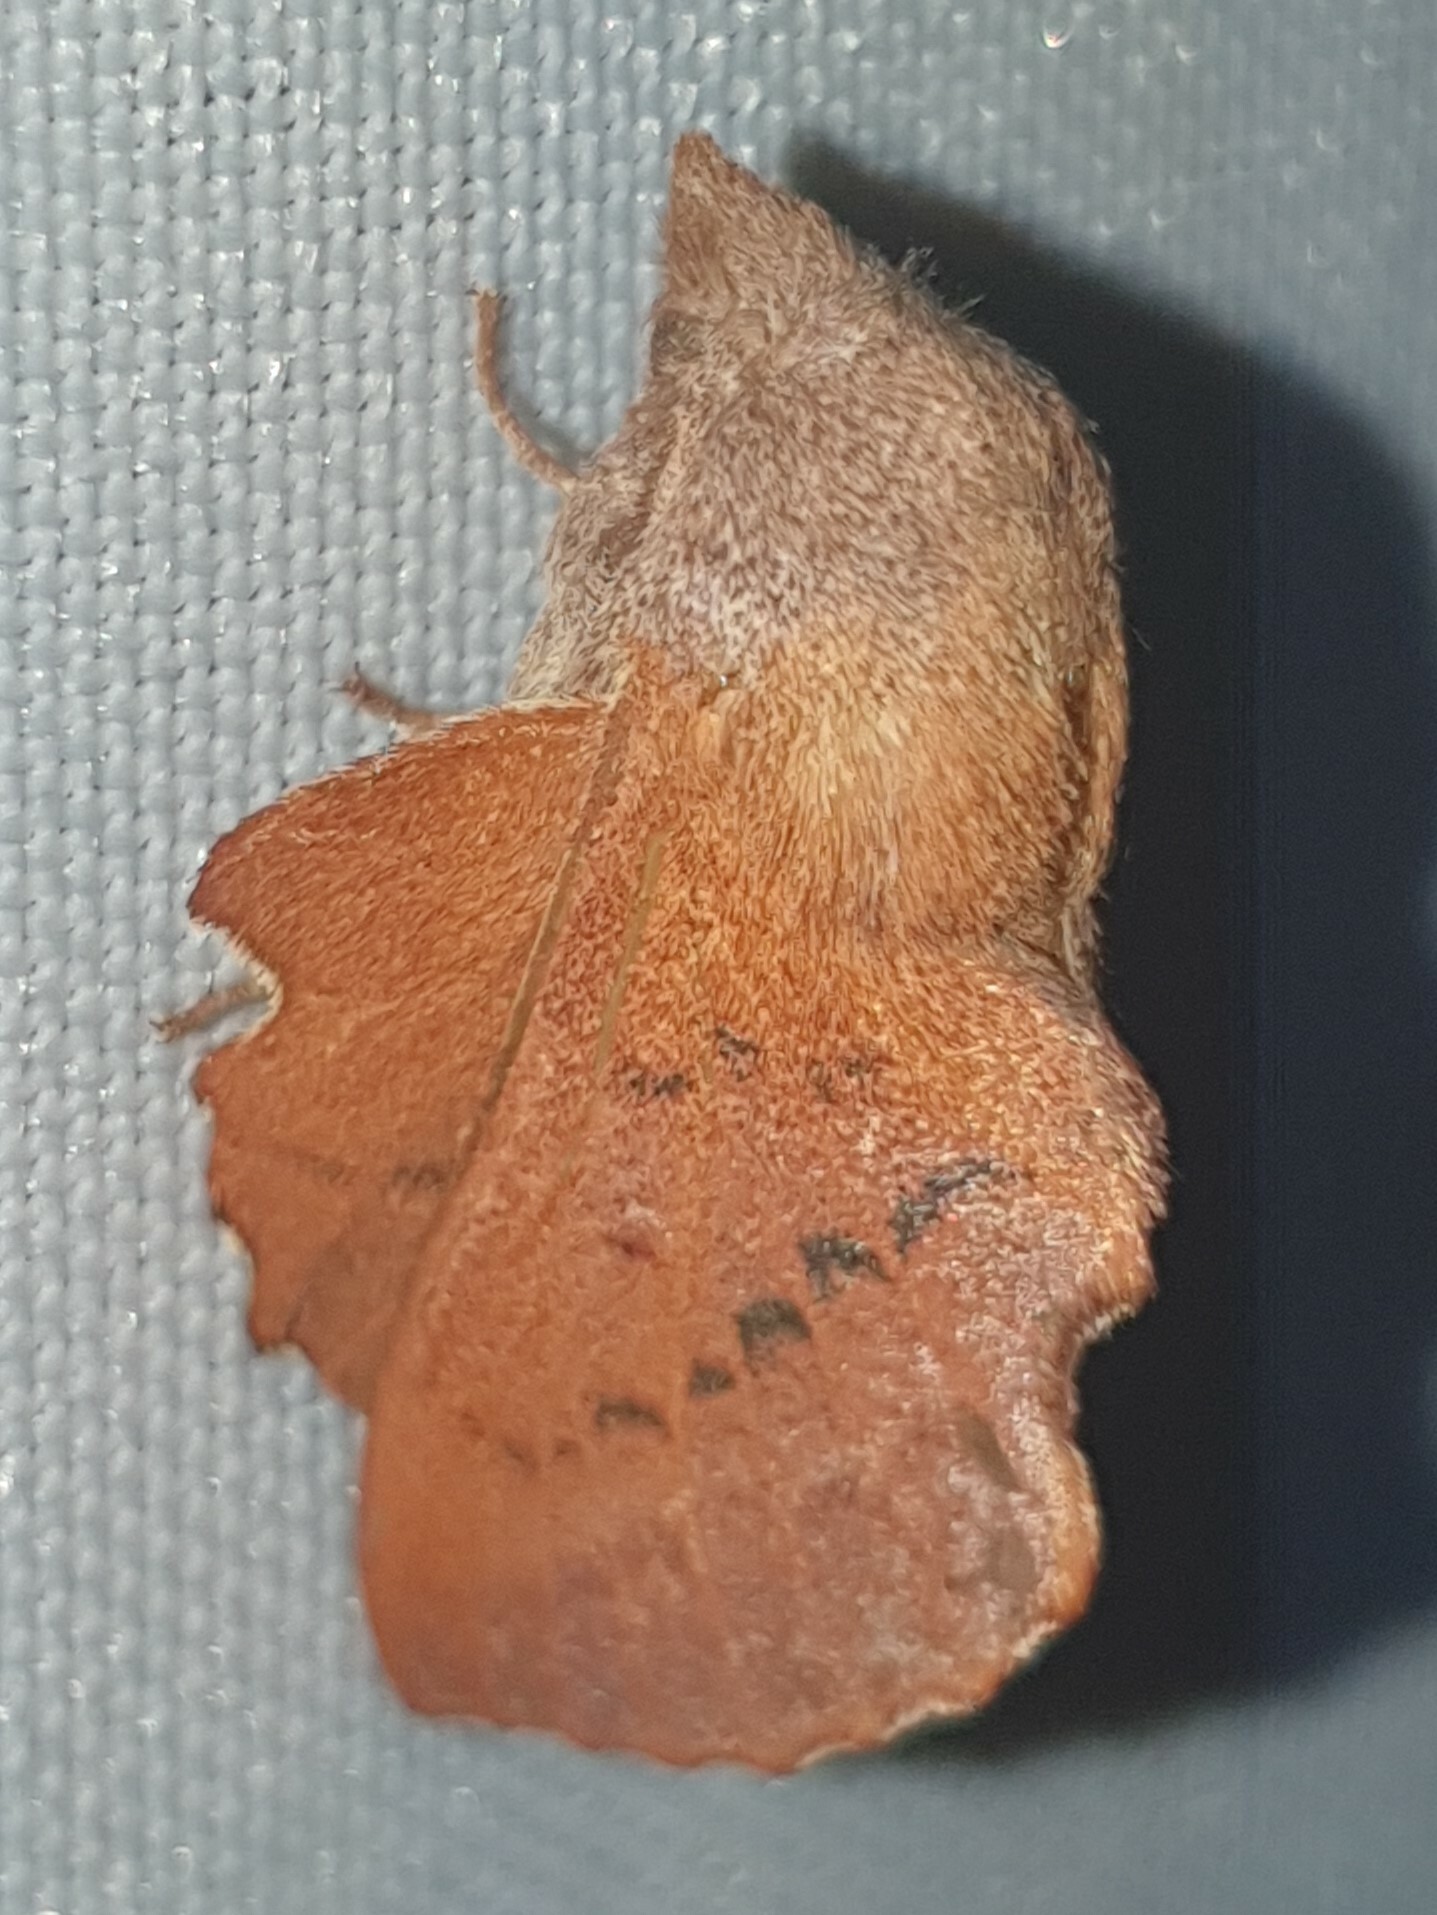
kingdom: Animalia
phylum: Arthropoda
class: Insecta
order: Lepidoptera
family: Lasiocampidae
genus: Phyllodesma
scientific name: Phyllodesma tremulifolia
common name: Aspen lappet
